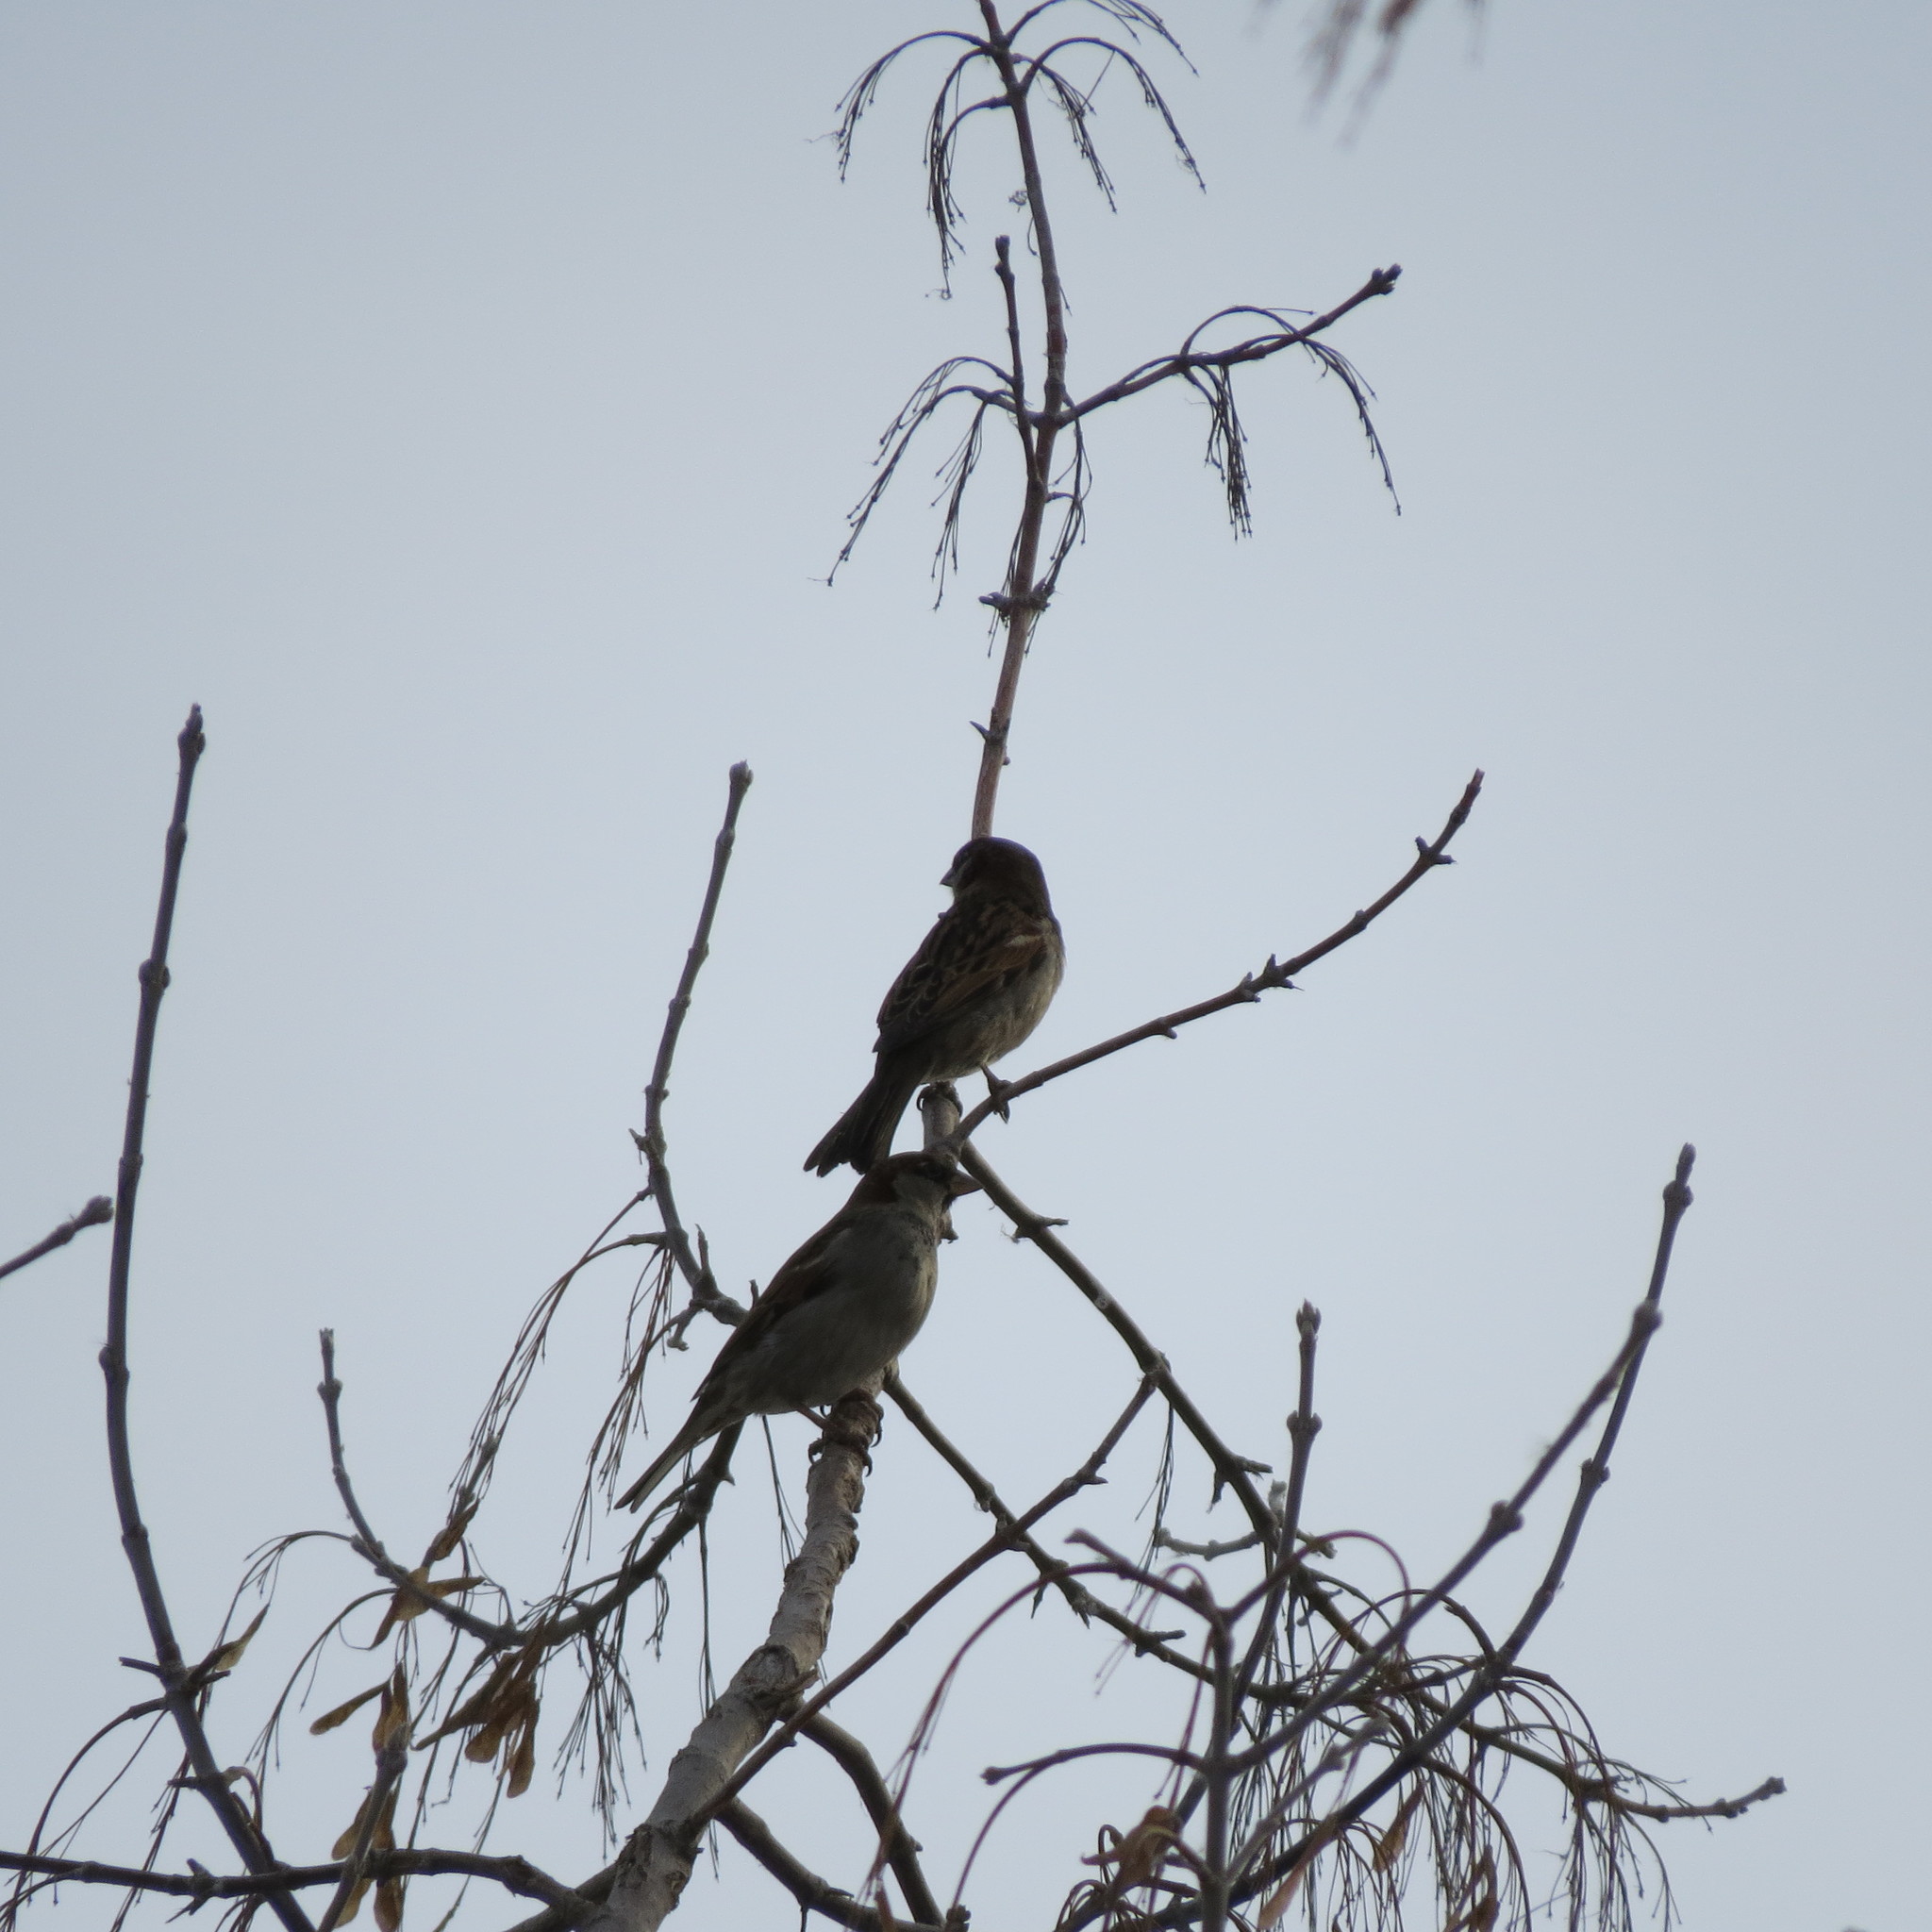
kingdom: Animalia
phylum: Chordata
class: Aves
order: Passeriformes
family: Passeridae
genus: Passer
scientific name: Passer domesticus
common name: House sparrow
